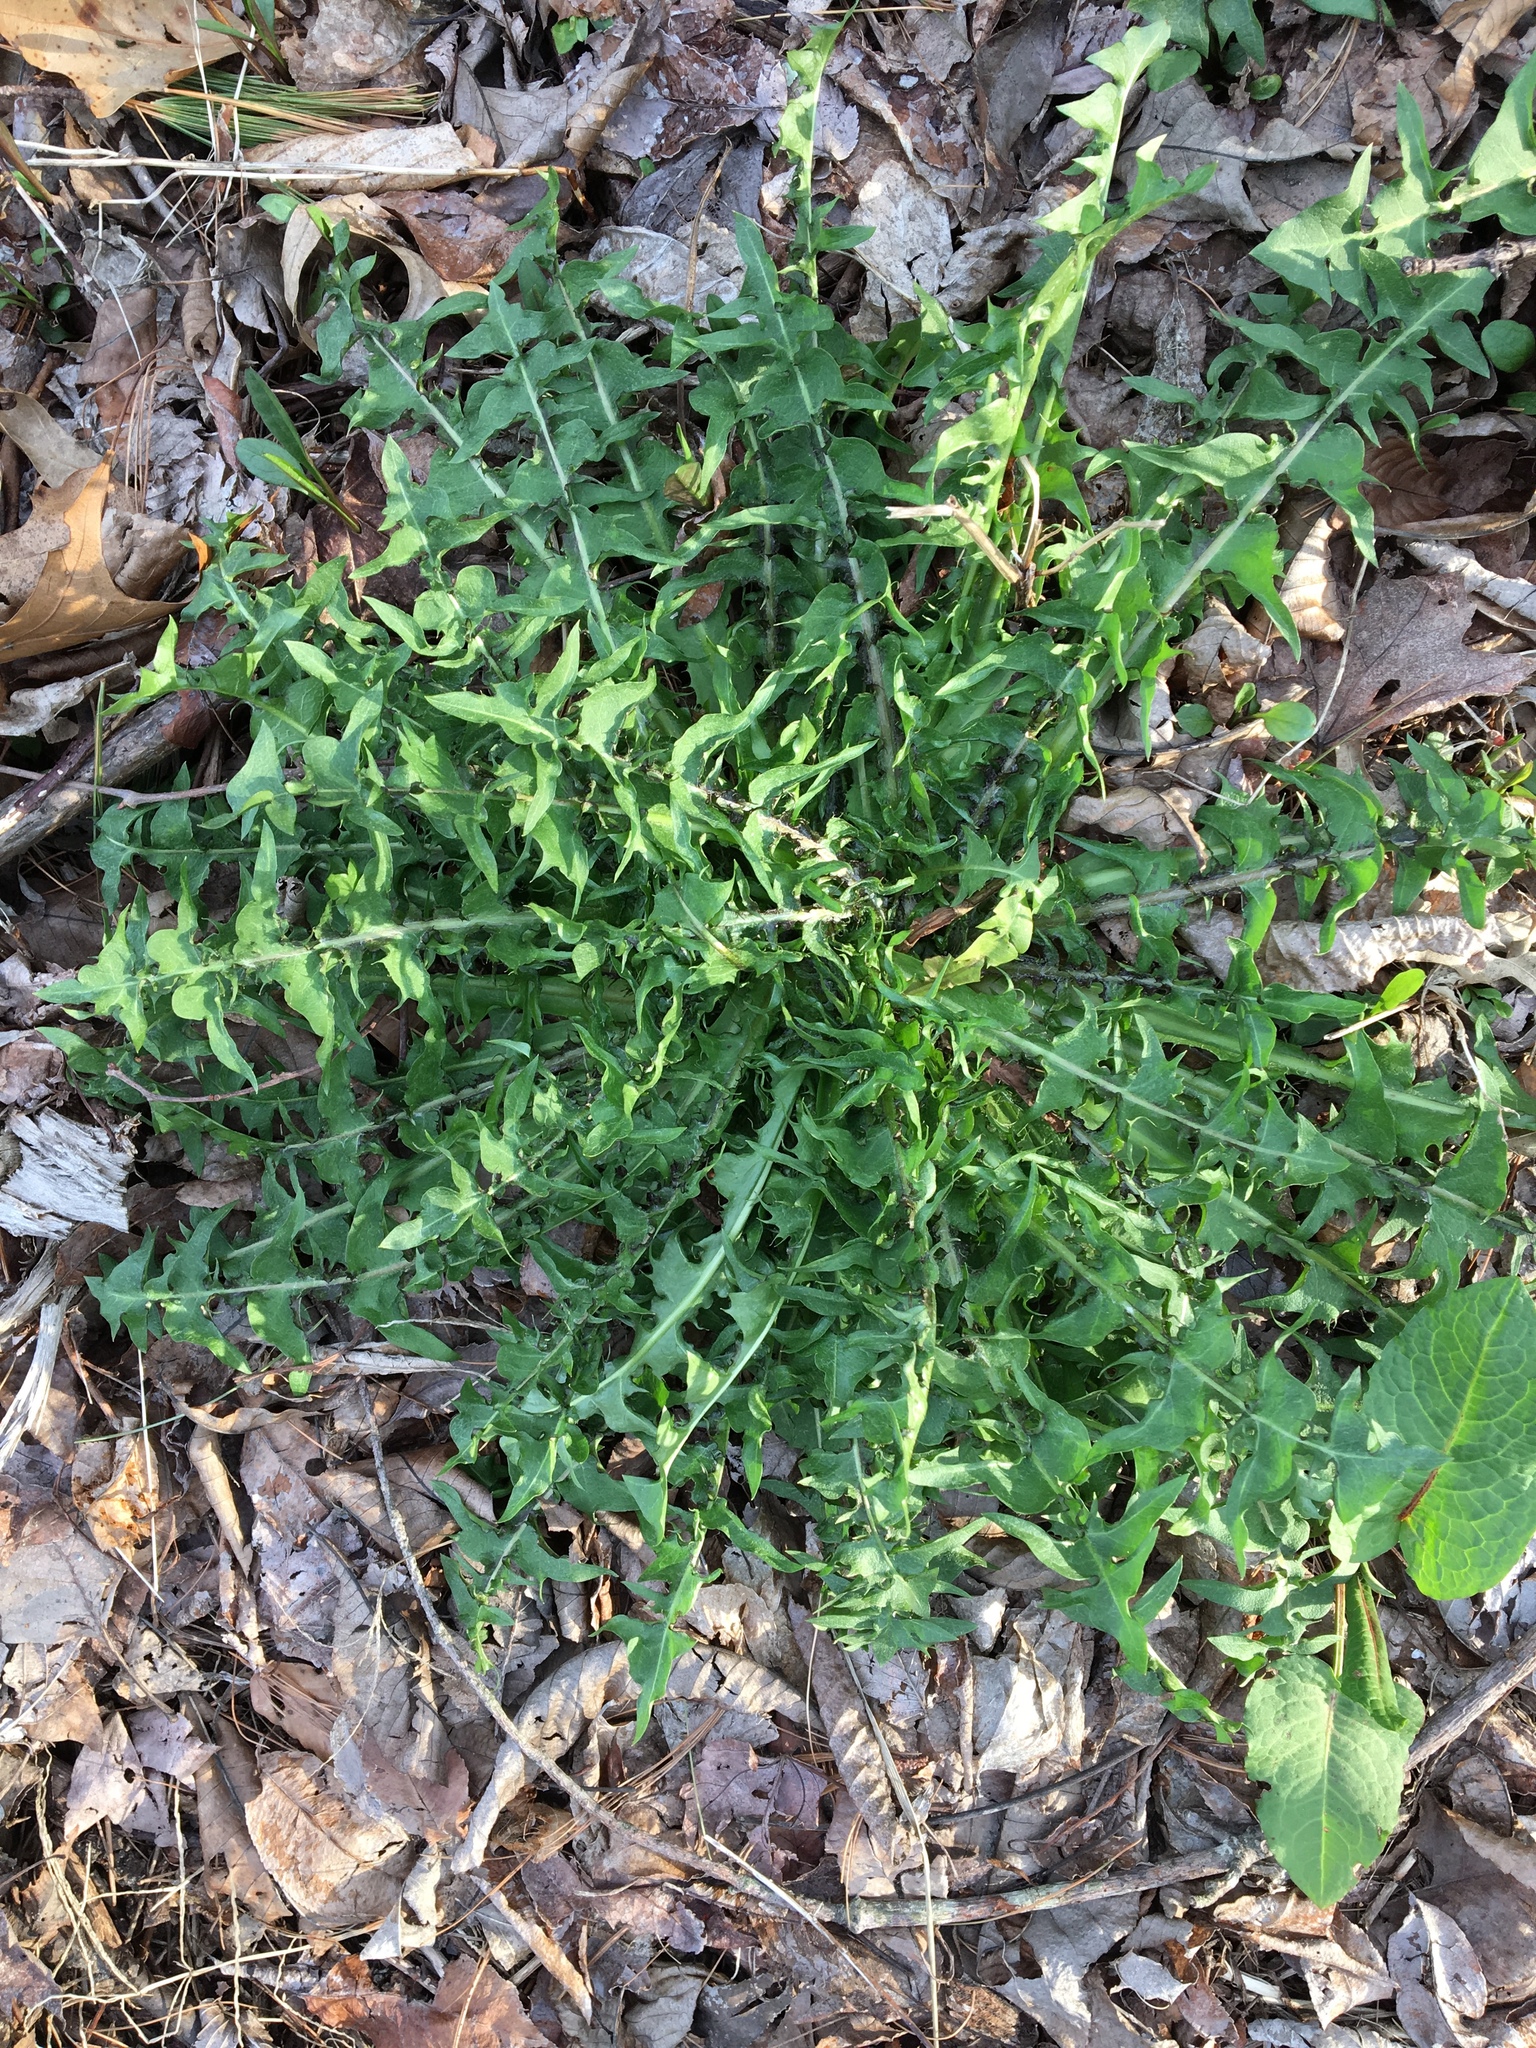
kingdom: Plantae
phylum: Tracheophyta
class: Magnoliopsida
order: Asterales
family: Asteraceae
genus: Taraxacum
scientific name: Taraxacum officinale
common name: Common dandelion
